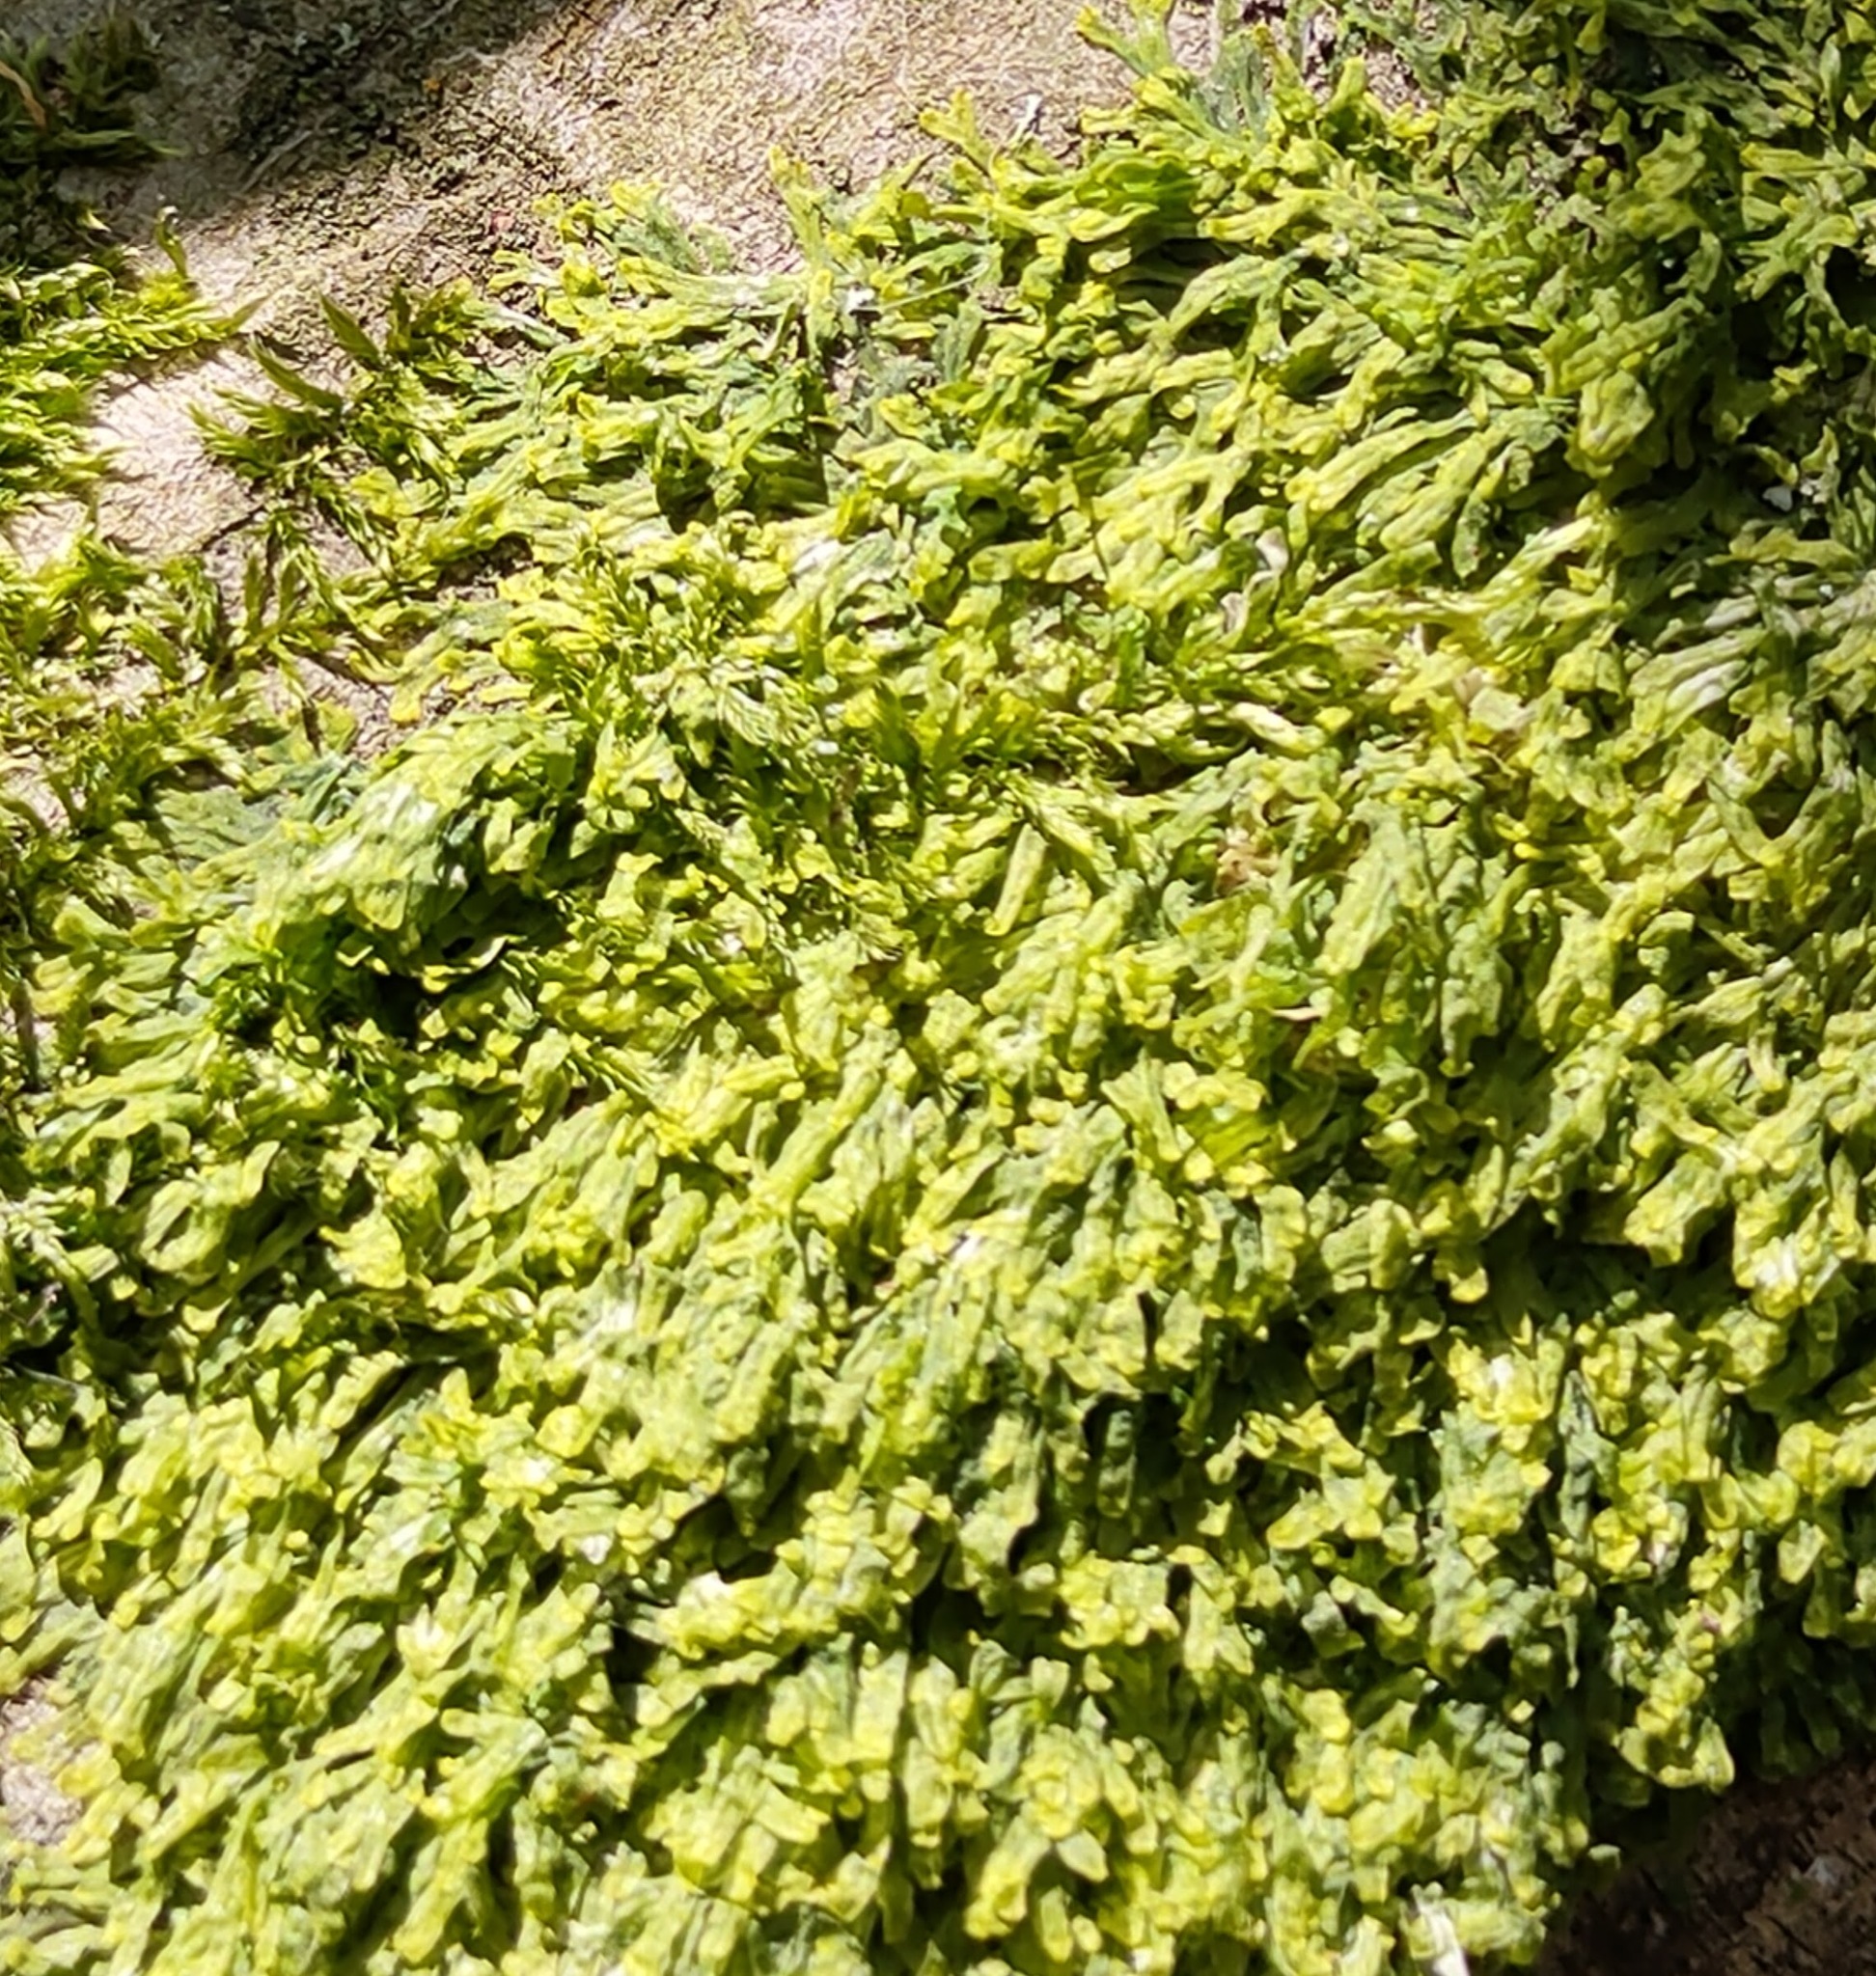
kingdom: Plantae
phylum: Marchantiophyta
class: Jungermanniopsida
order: Metzgeriales
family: Metzgeriaceae
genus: Metzgeria
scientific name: Metzgeria furcata
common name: Forked veilwort
